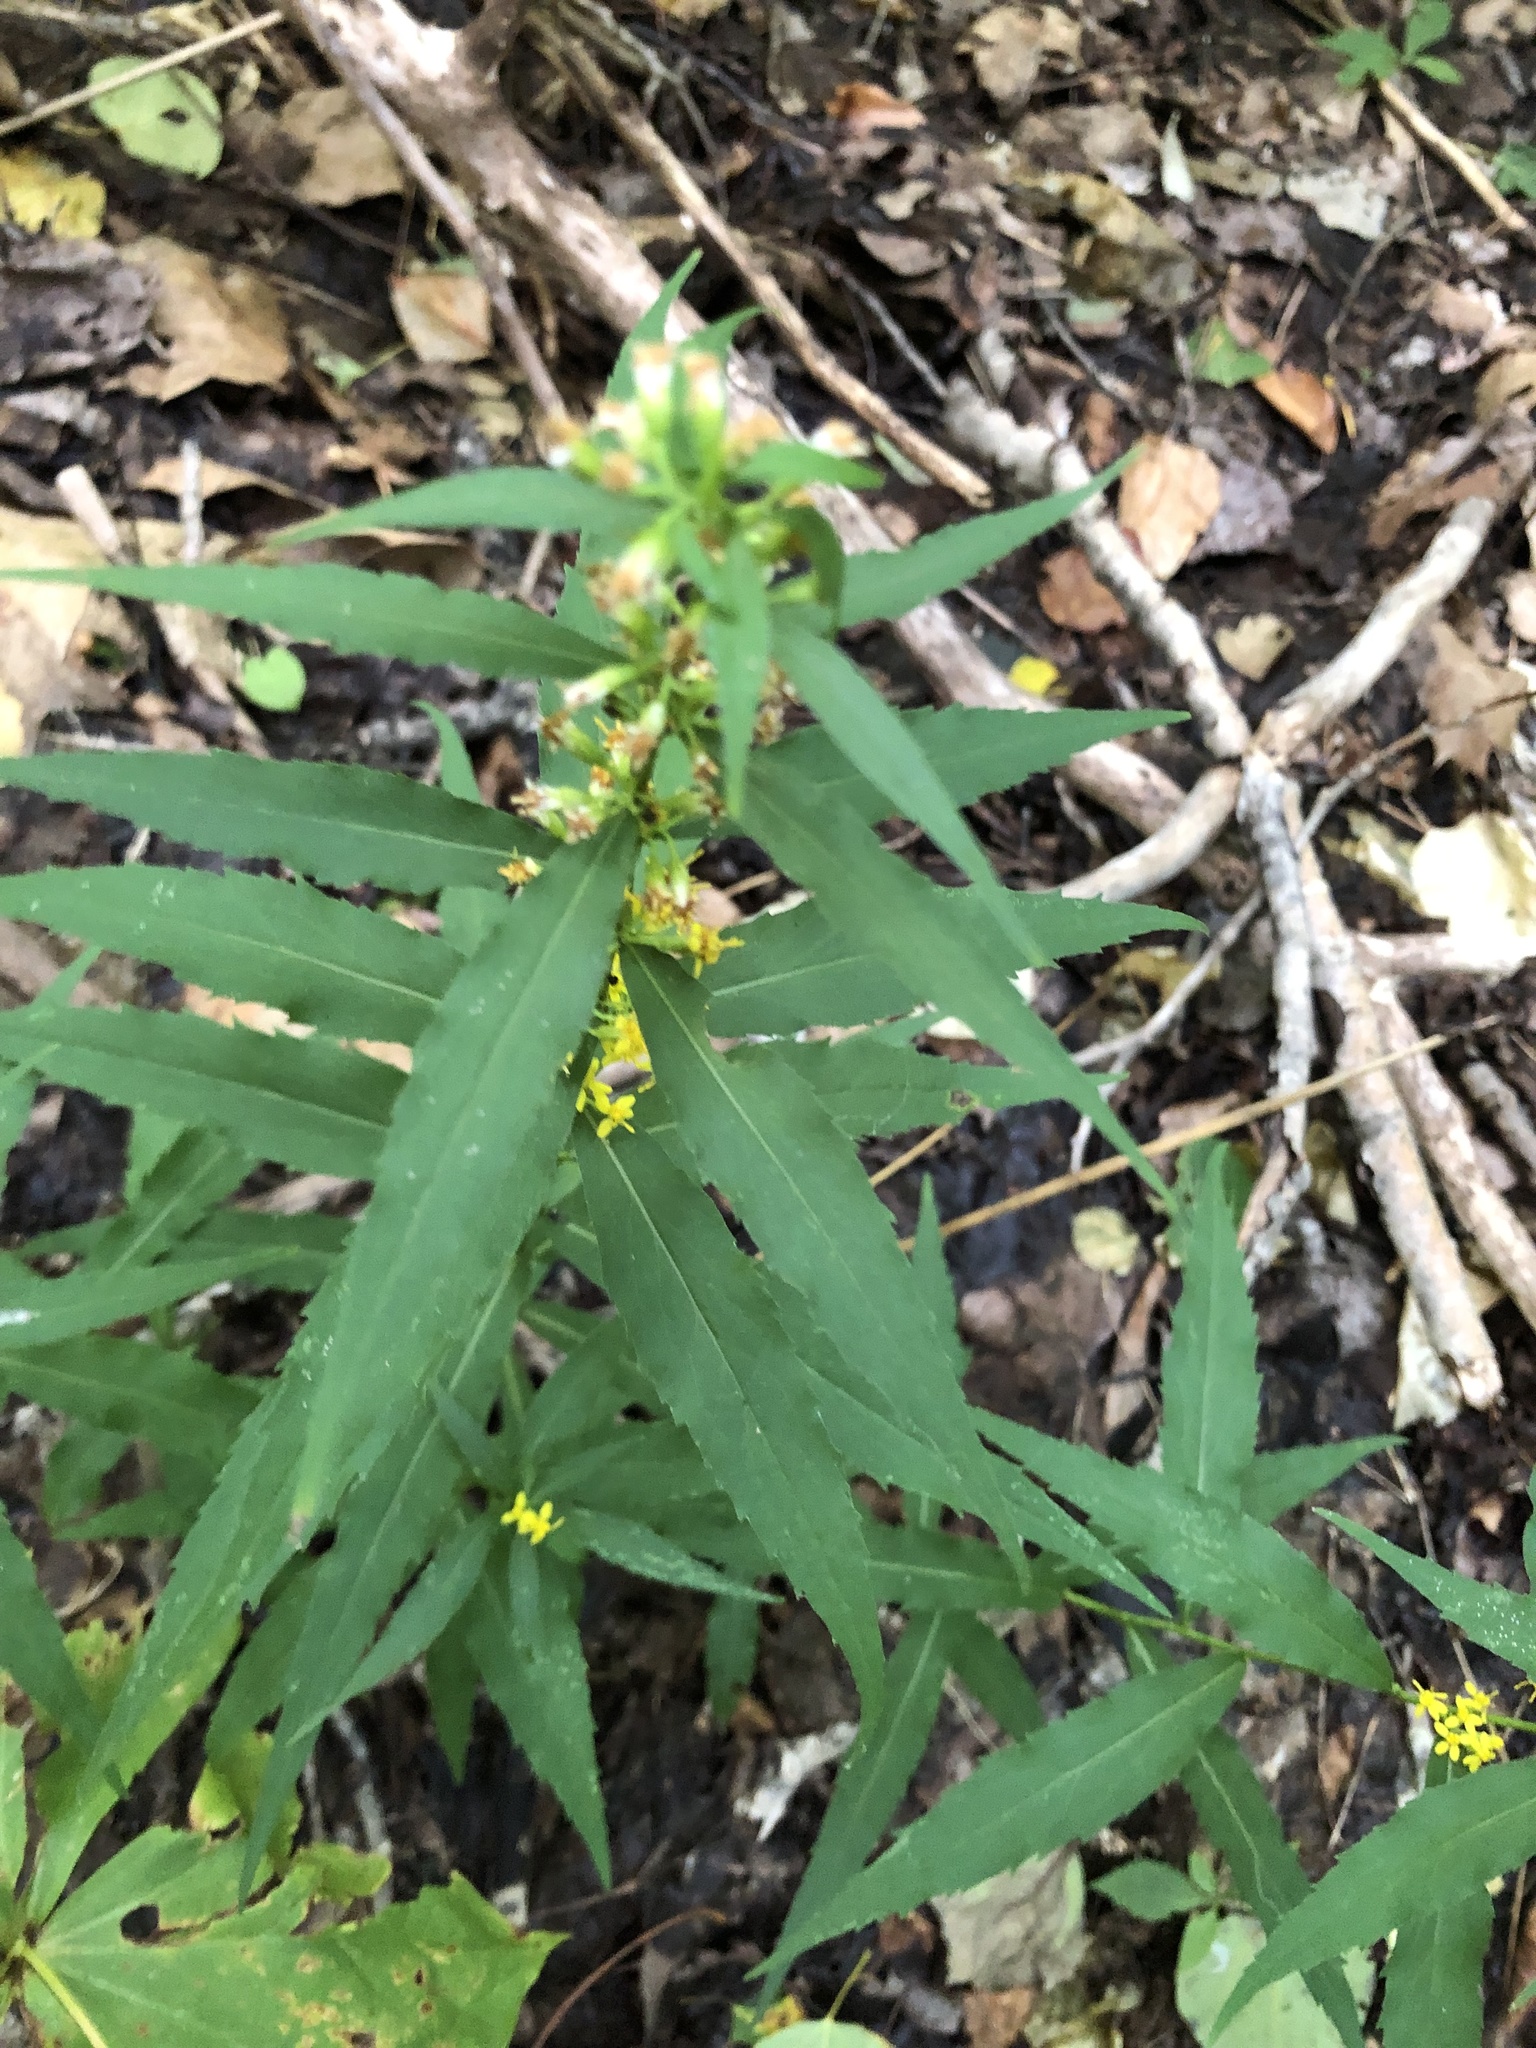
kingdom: Plantae
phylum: Tracheophyta
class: Magnoliopsida
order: Asterales
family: Asteraceae
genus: Solidago
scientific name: Solidago caesia
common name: Woodland goldenrod
